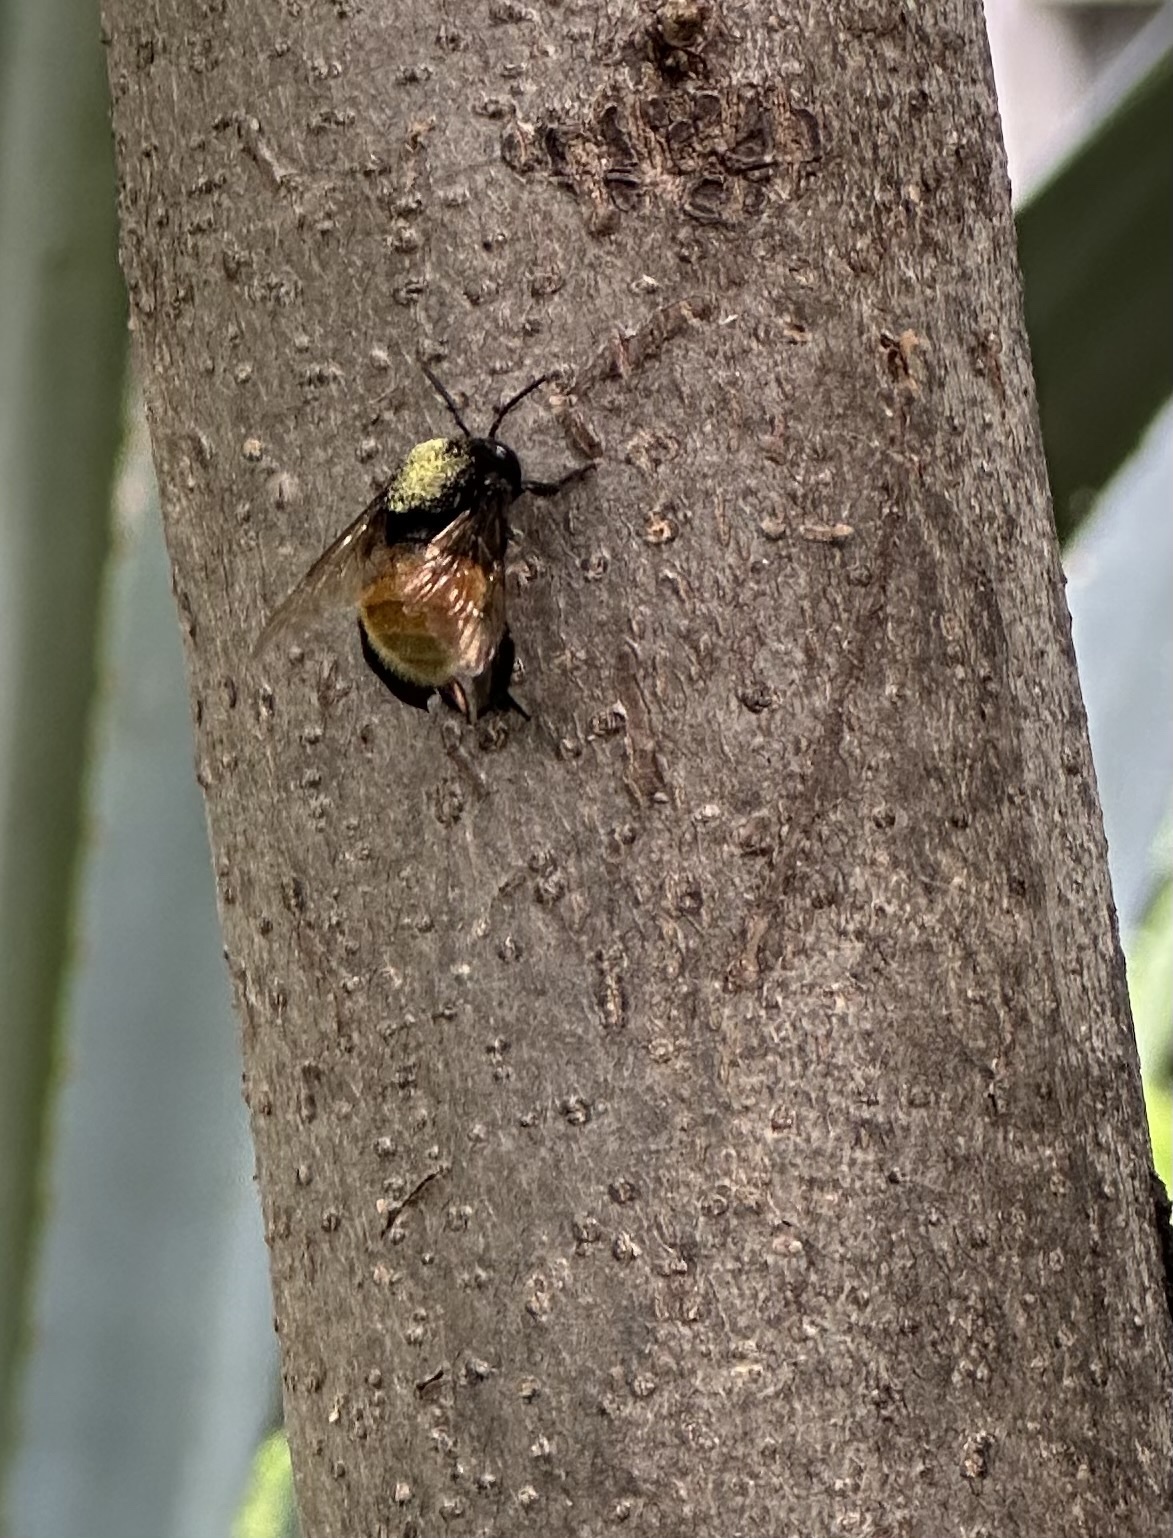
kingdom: Animalia
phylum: Arthropoda
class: Insecta
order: Hymenoptera
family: Apidae
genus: Eulaema
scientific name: Eulaema polychroma
